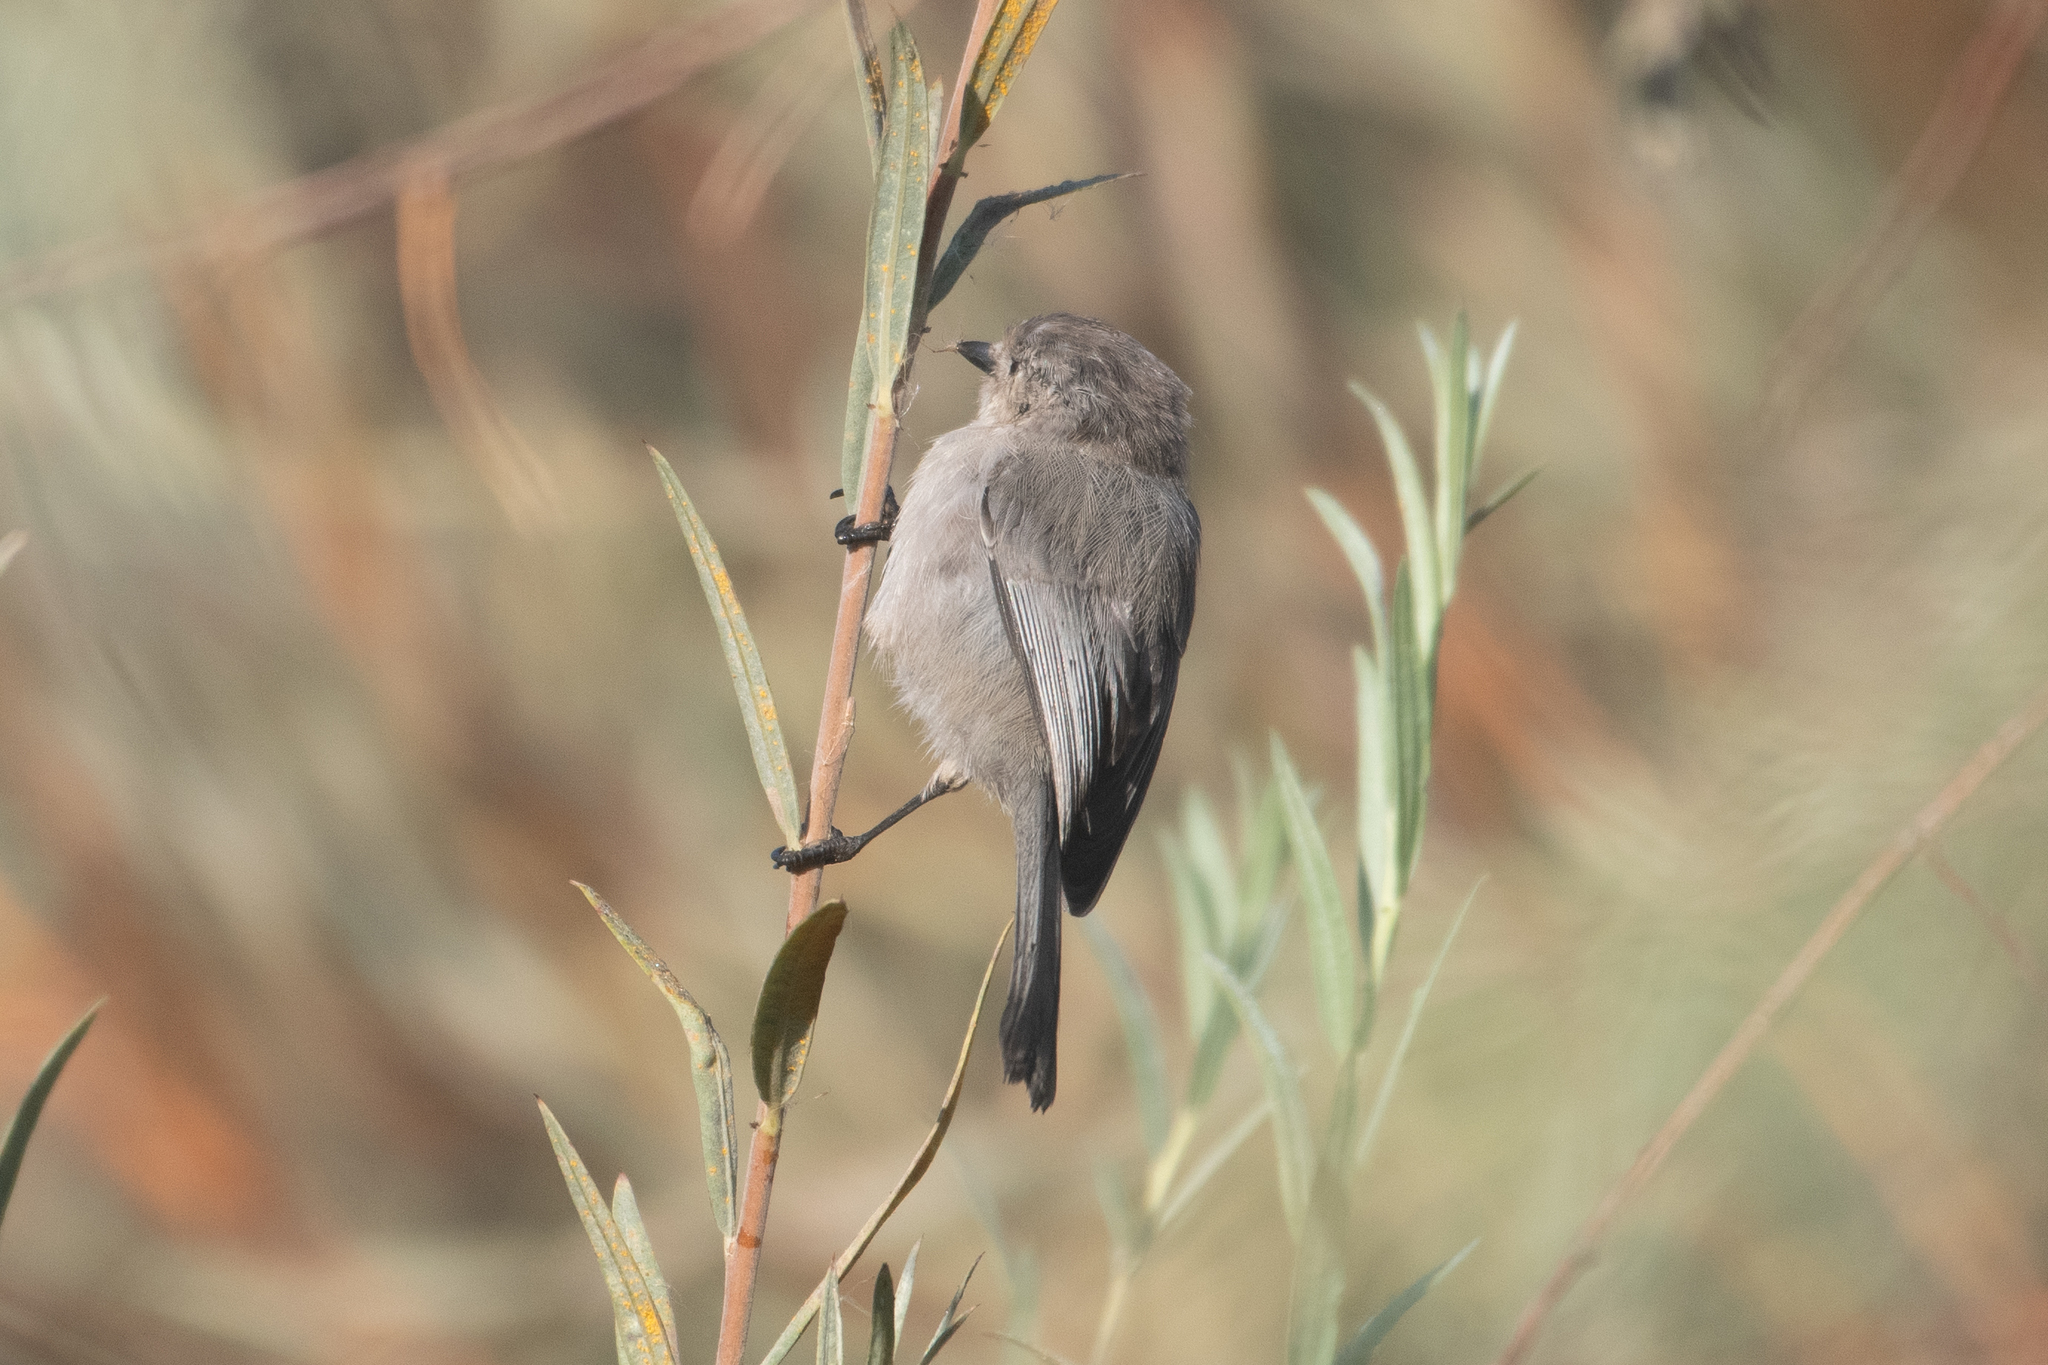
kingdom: Animalia
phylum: Chordata
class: Aves
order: Passeriformes
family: Aegithalidae
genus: Psaltriparus
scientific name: Psaltriparus minimus
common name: American bushtit
